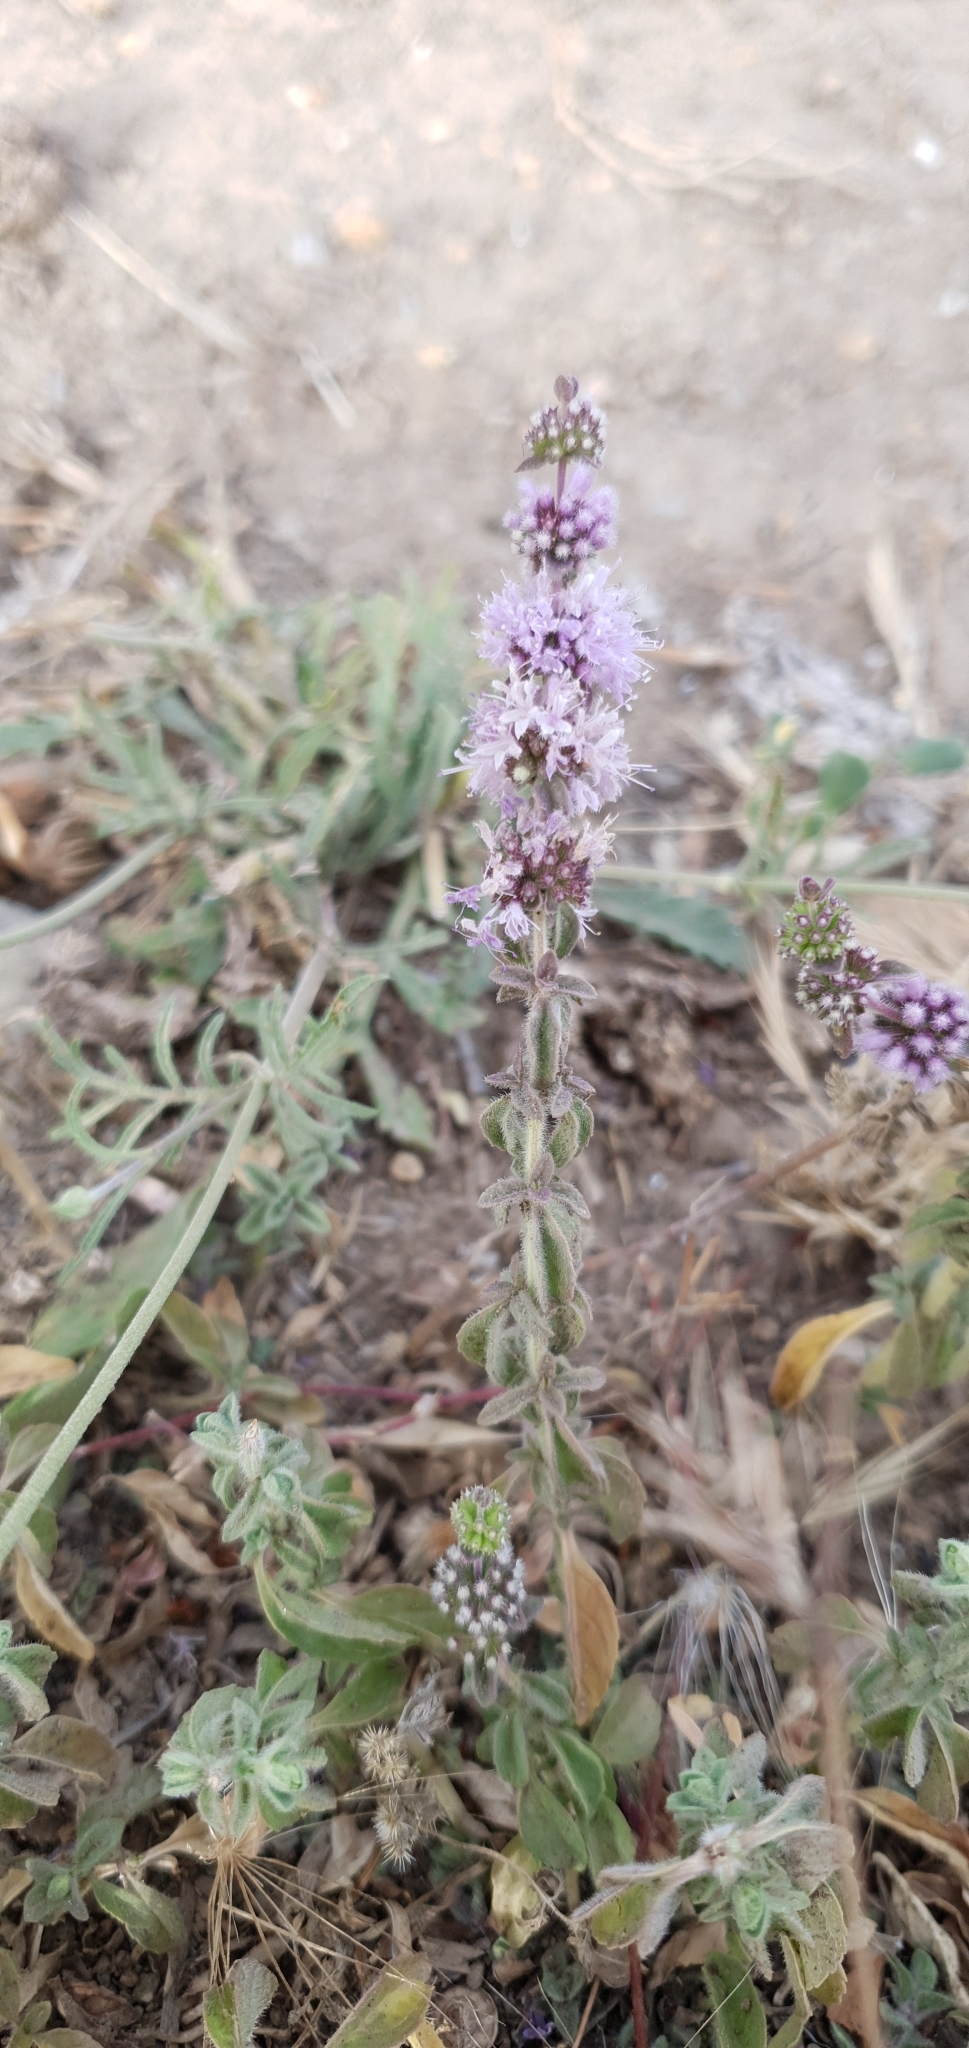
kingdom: Plantae
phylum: Tracheophyta
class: Magnoliopsida
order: Lamiales
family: Lamiaceae
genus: Mentha
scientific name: Mentha pulegium
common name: Pennyroyal
